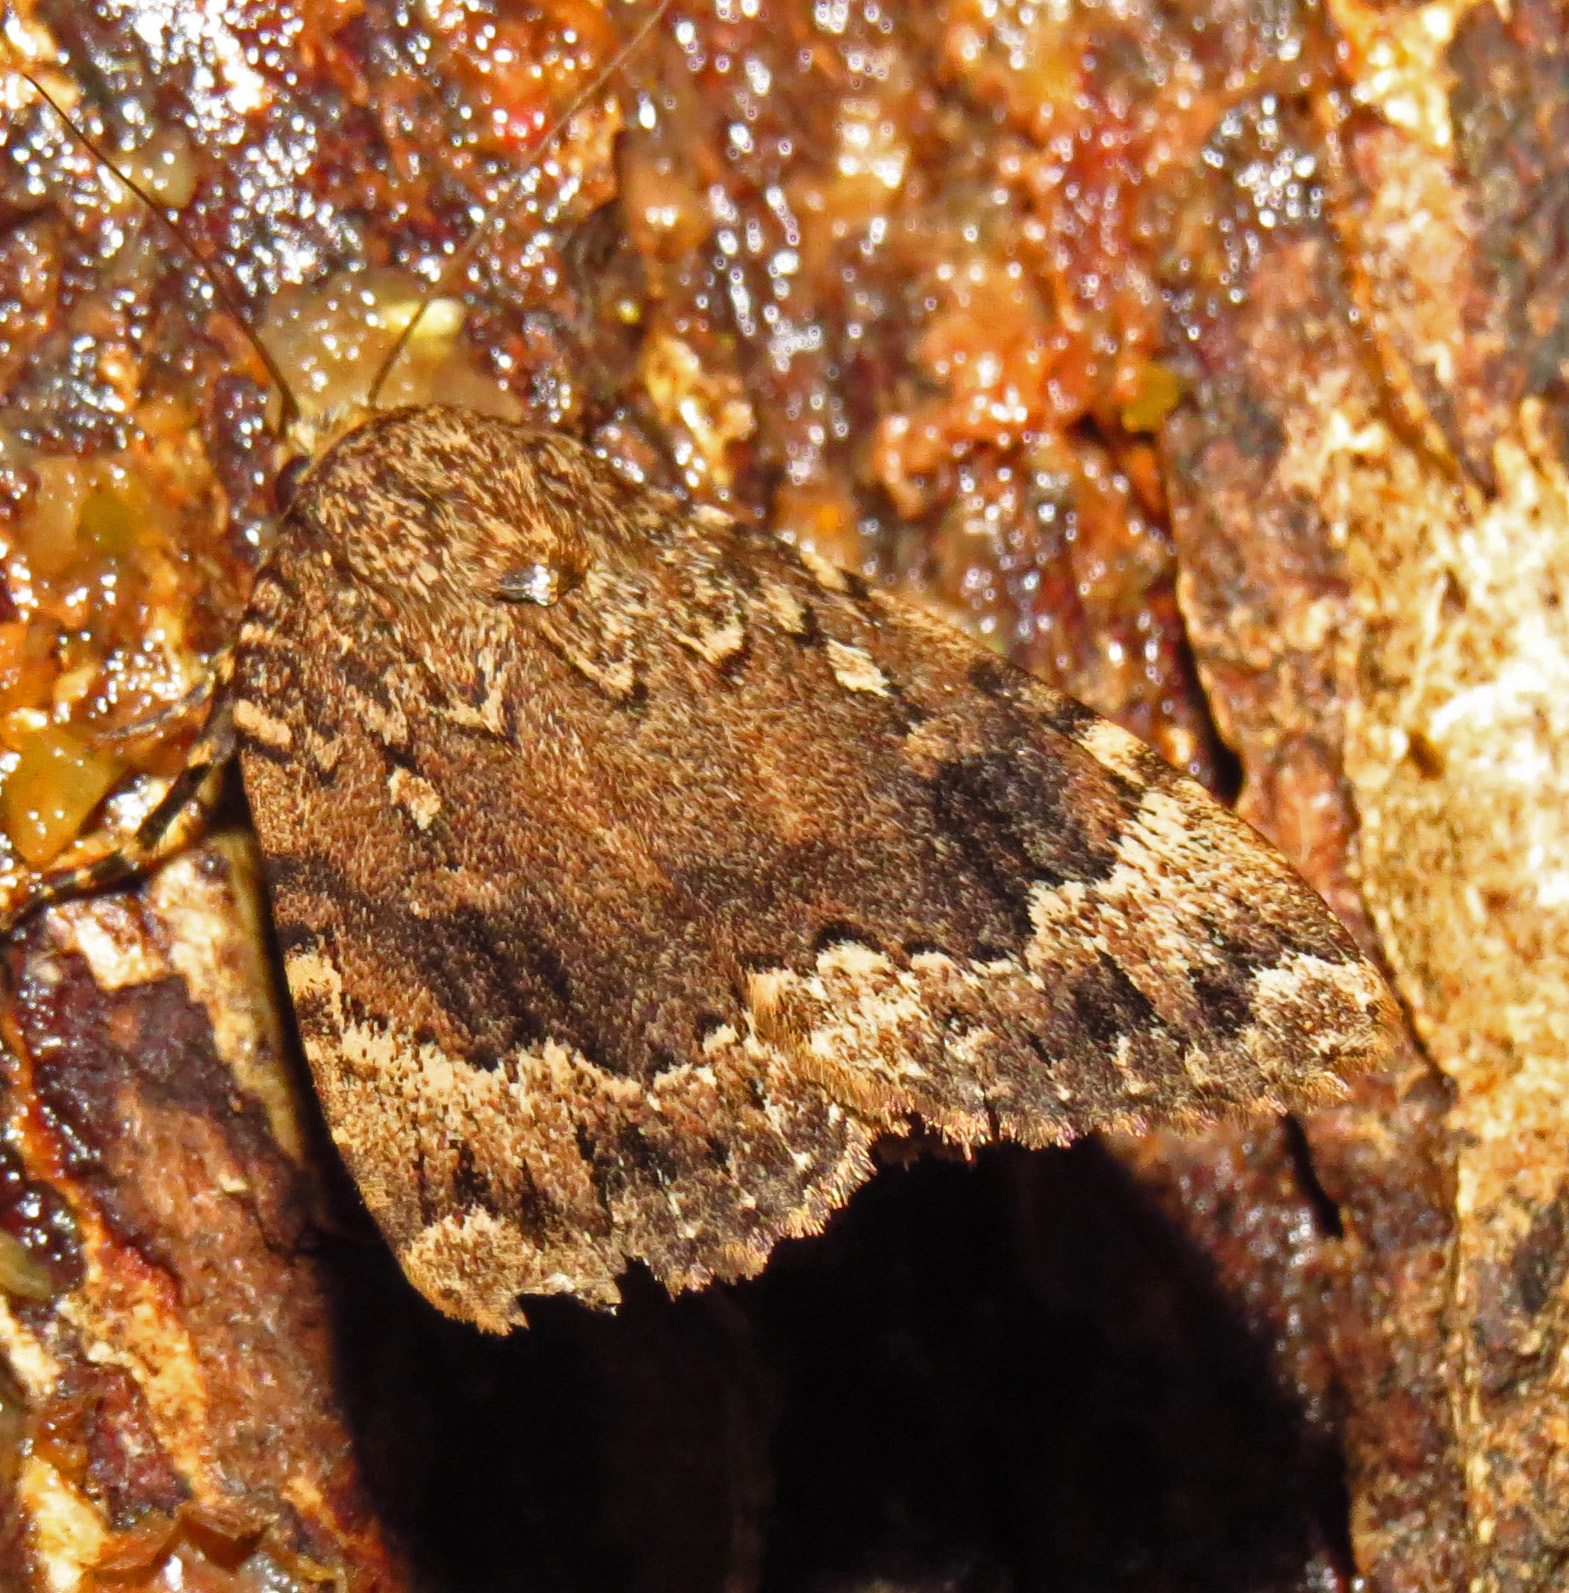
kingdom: Animalia
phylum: Arthropoda
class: Insecta
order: Lepidoptera
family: Noctuidae
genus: Amphipyra
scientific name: Amphipyra pyramidoides
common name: American copper underwing
